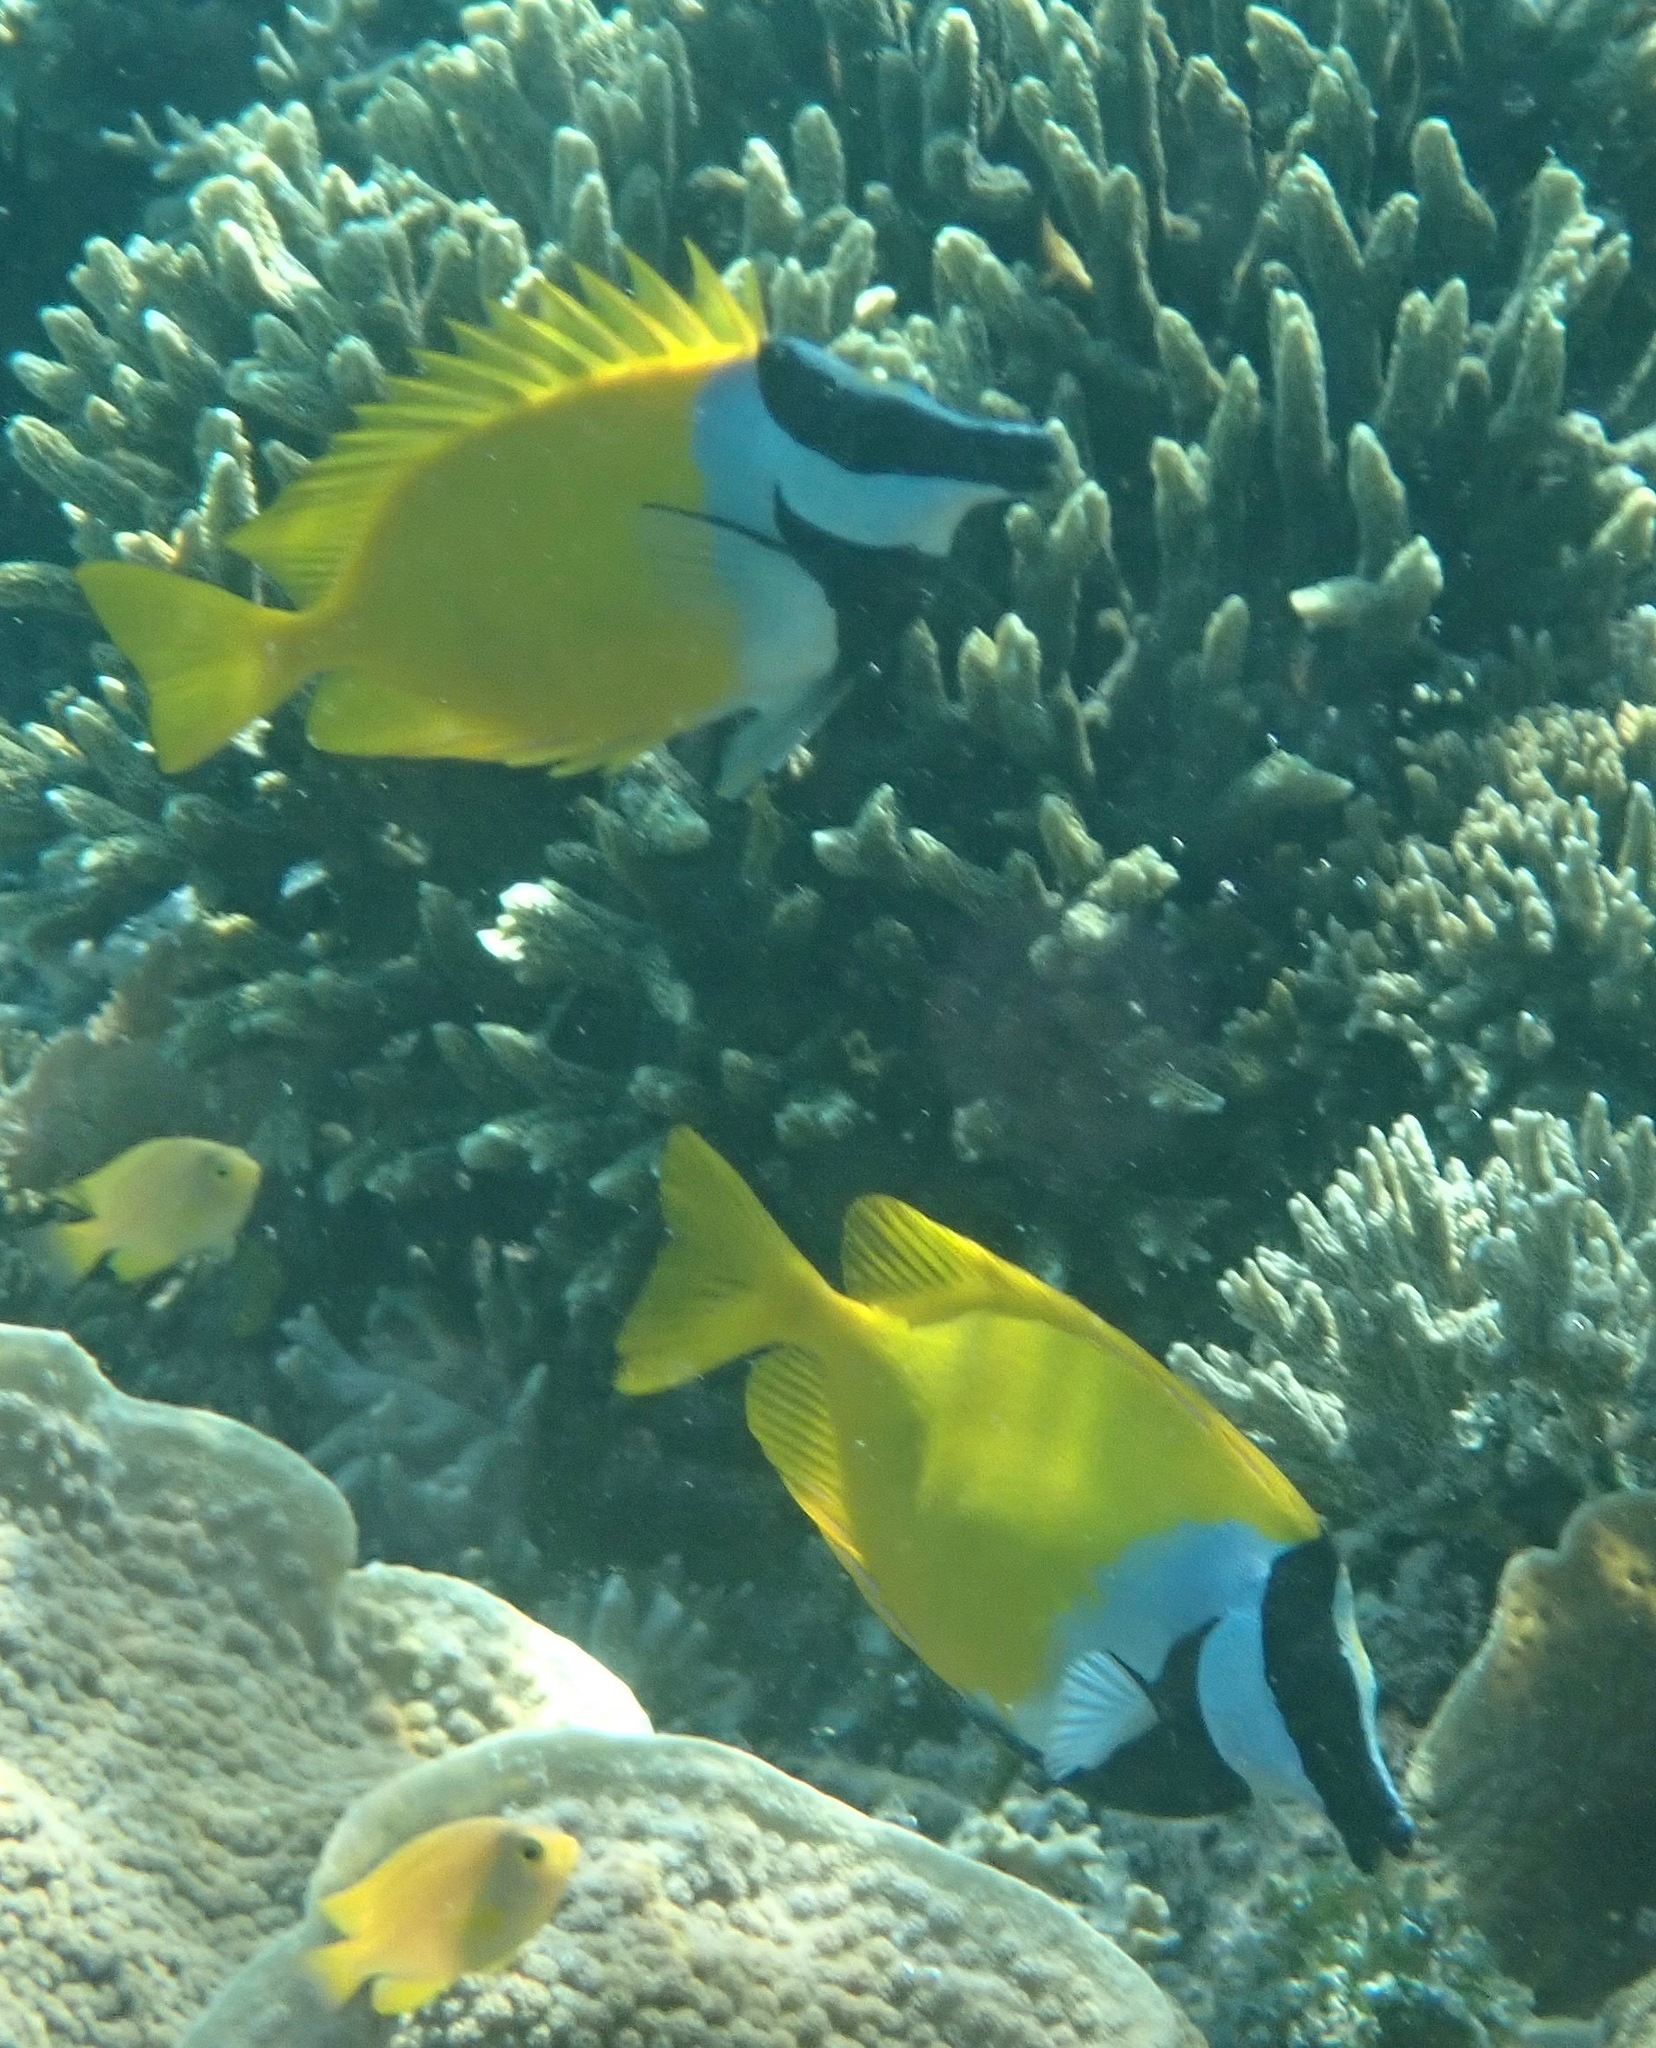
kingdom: Animalia
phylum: Chordata
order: Perciformes
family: Siganidae
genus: Siganus
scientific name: Siganus vulpinus
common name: Foxface
